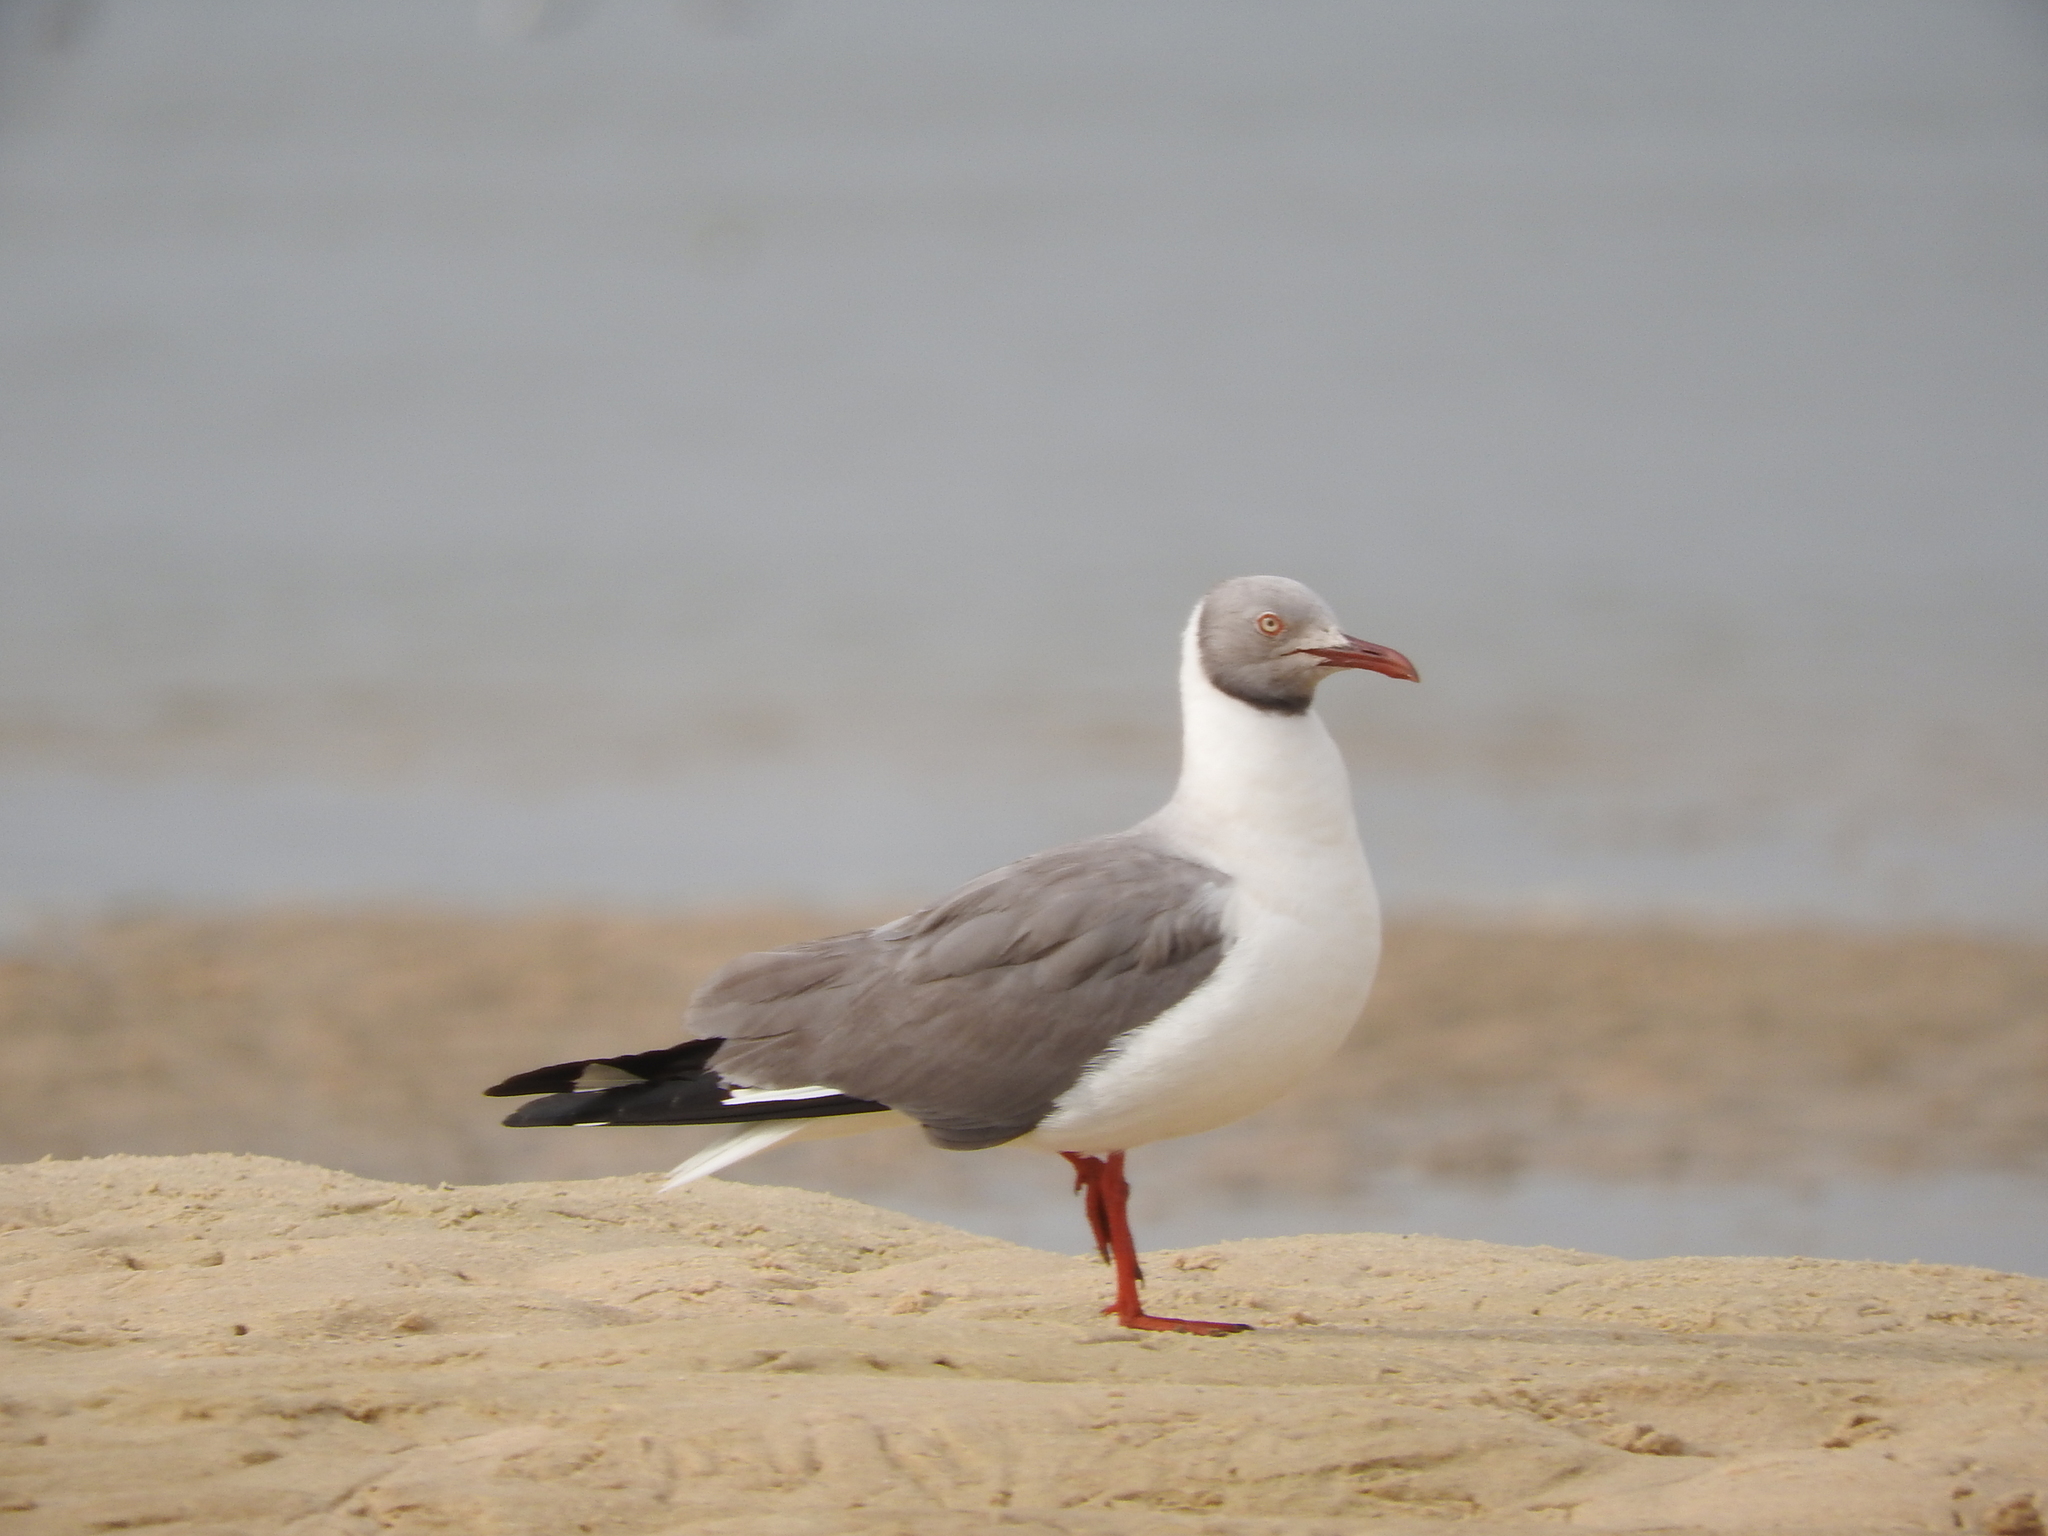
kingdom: Animalia
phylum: Chordata
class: Aves
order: Charadriiformes
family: Laridae
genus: Chroicocephalus
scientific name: Chroicocephalus cirrocephalus
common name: Grey-headed gull
